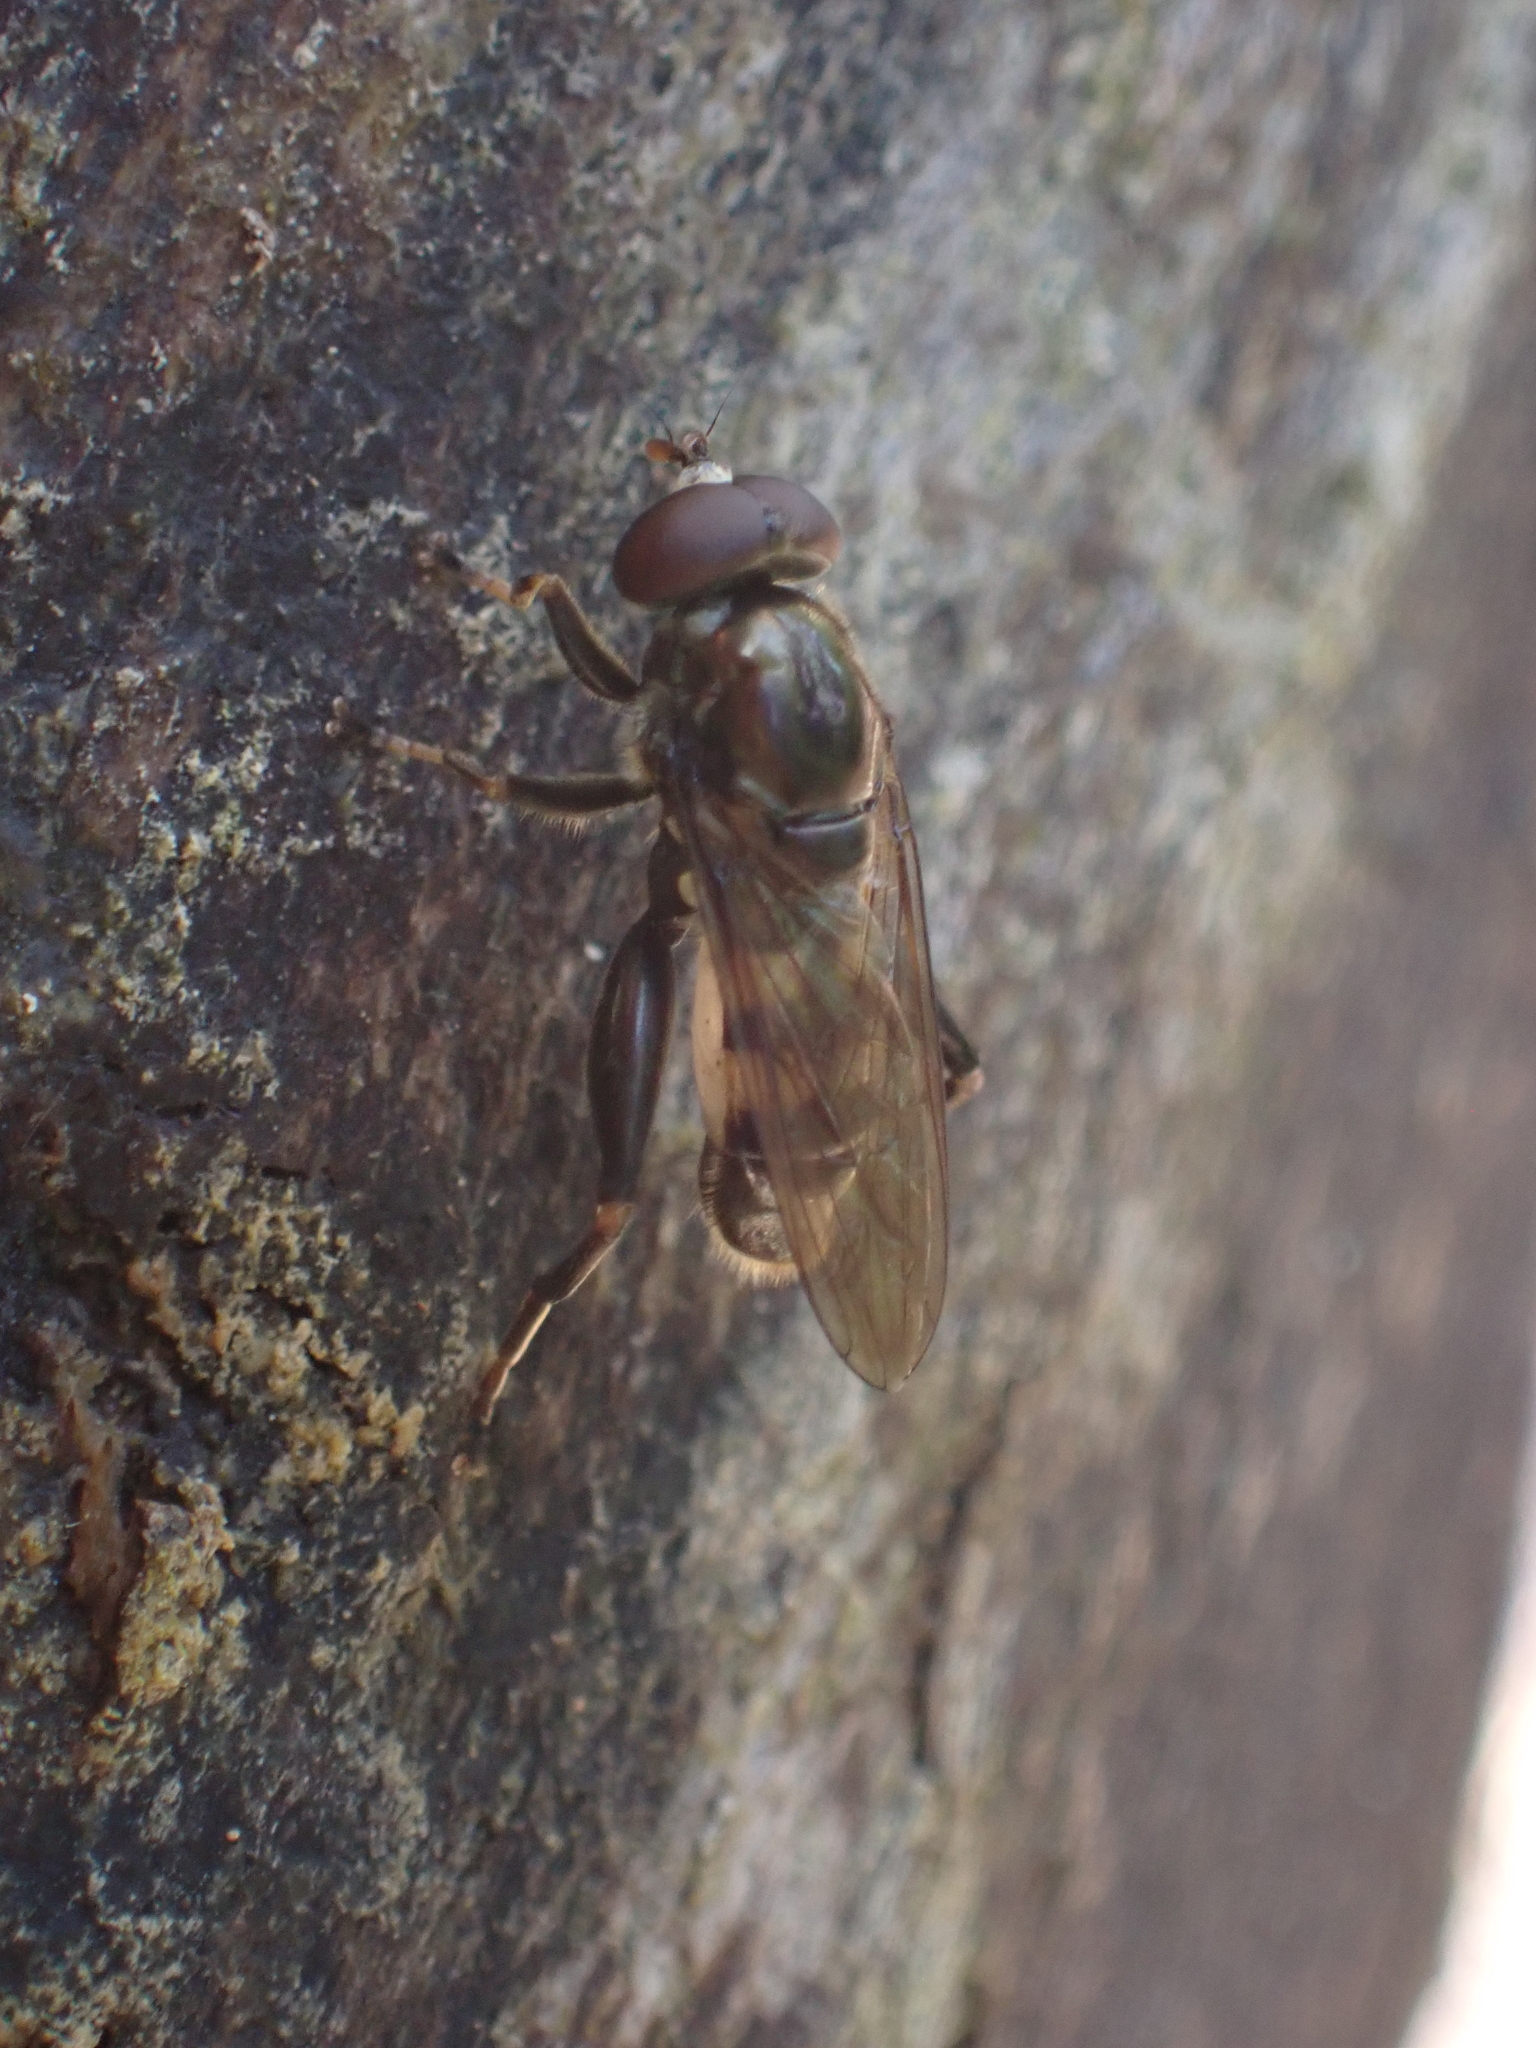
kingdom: Animalia
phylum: Arthropoda
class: Insecta
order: Diptera
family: Syrphidae
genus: Chalcosyrphus
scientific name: Chalcosyrphus nemorum
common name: Dusky-banded forest fly
